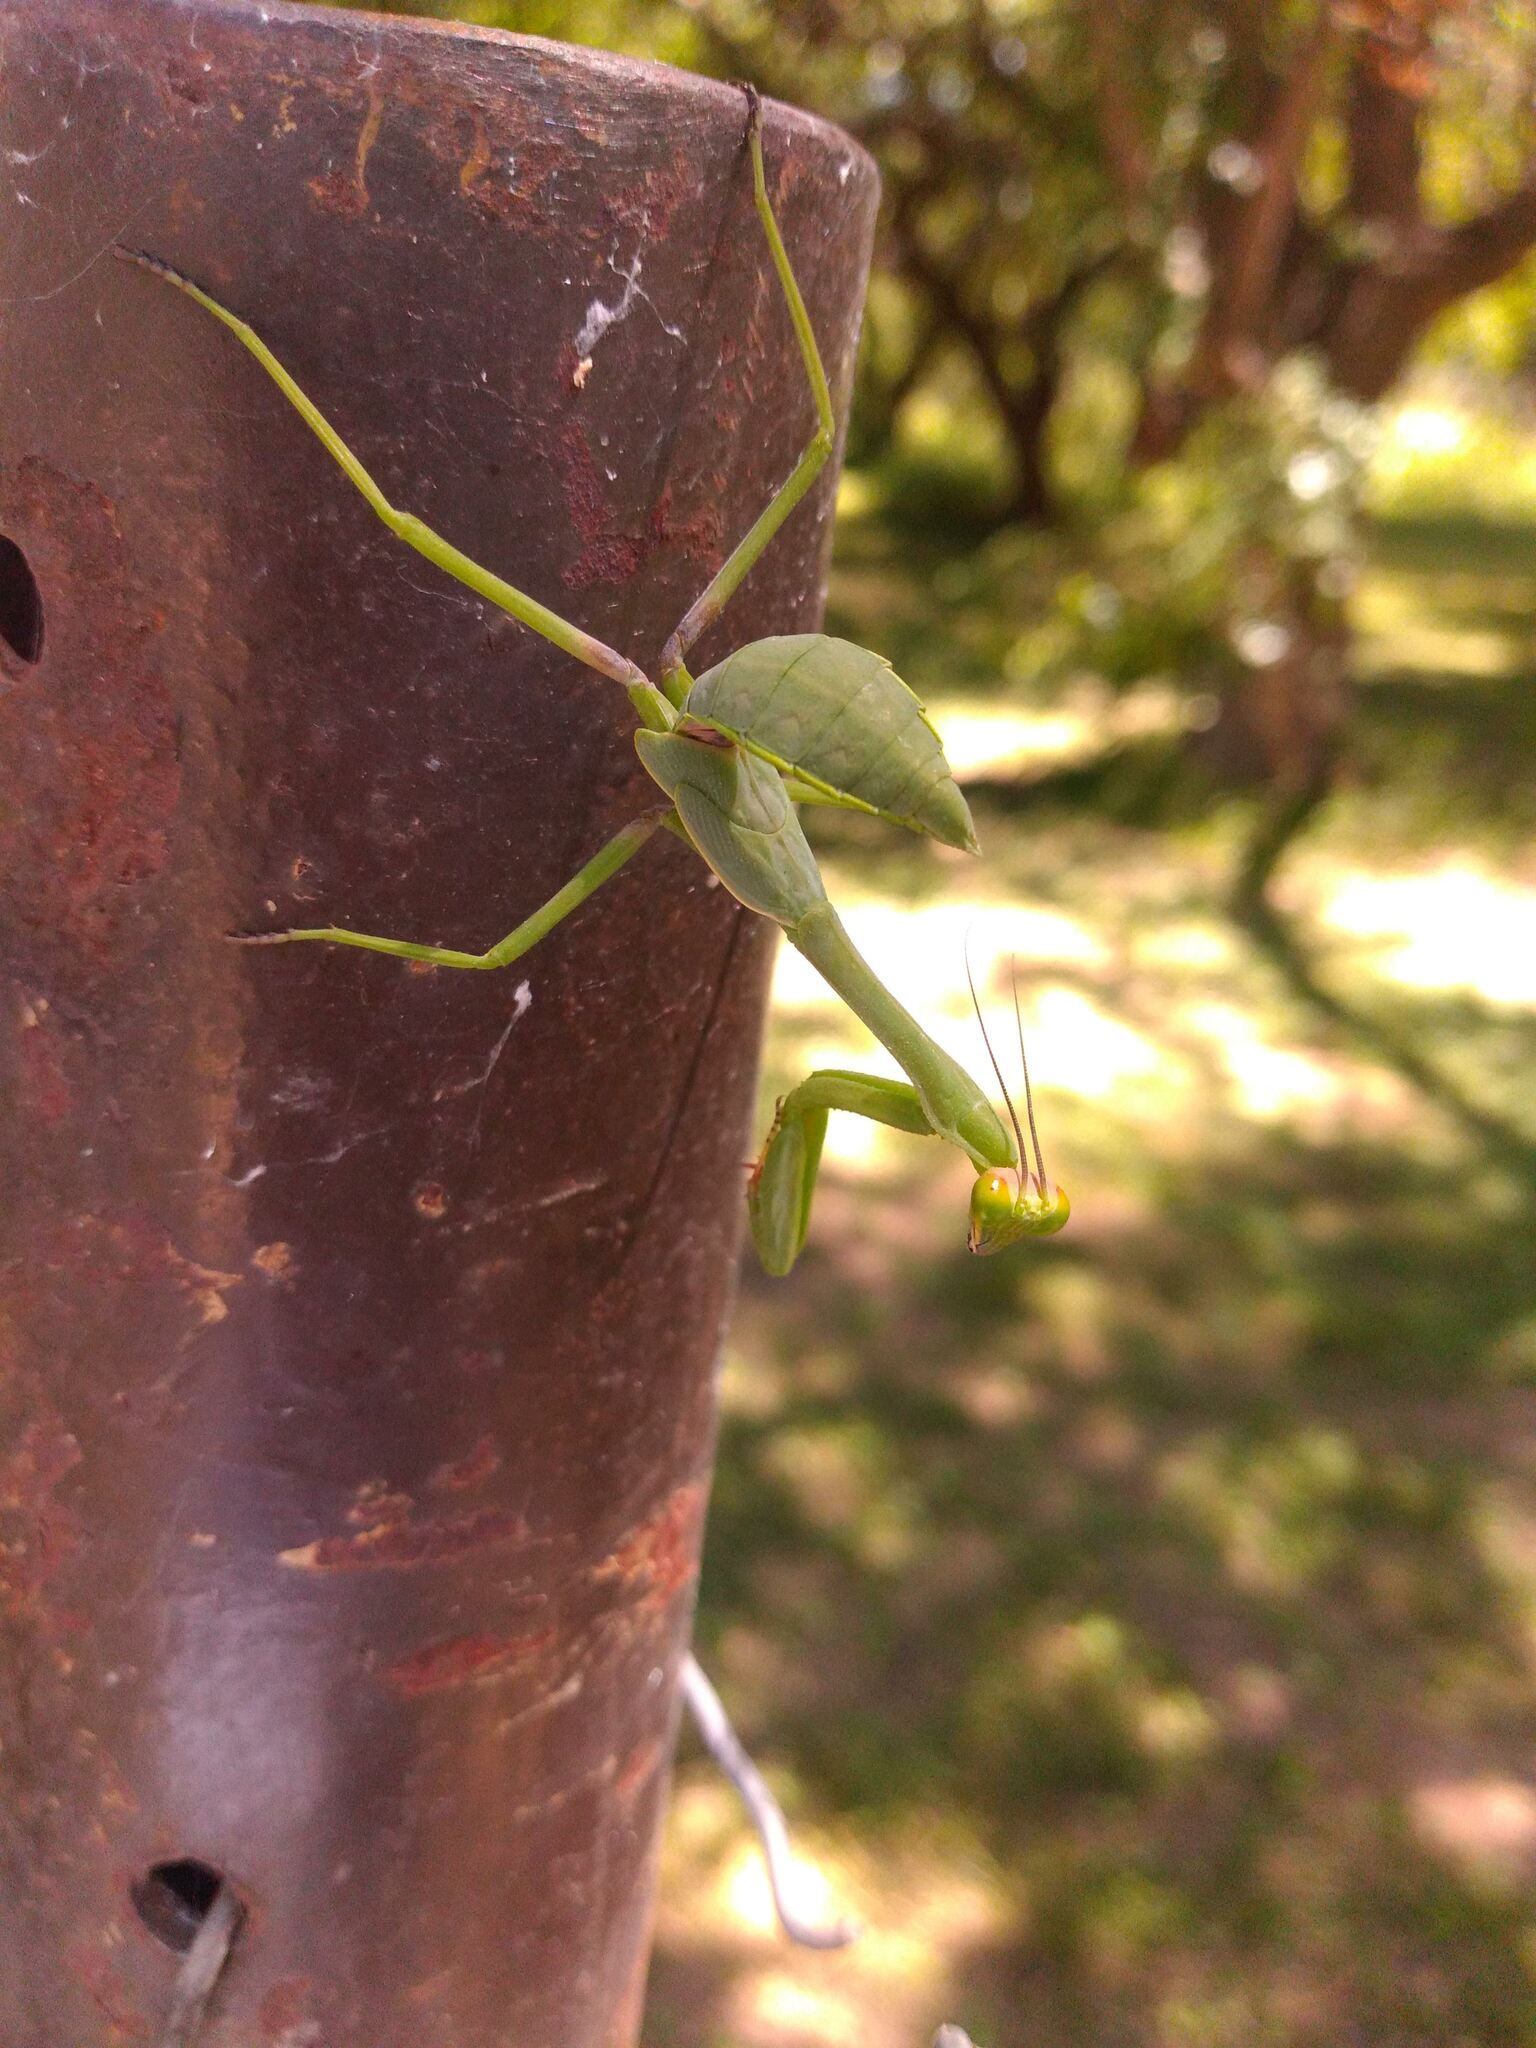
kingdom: Animalia
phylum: Arthropoda
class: Insecta
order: Mantodea
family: Mantidae
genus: Stagmatoptera
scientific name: Stagmatoptera hyaloptera
